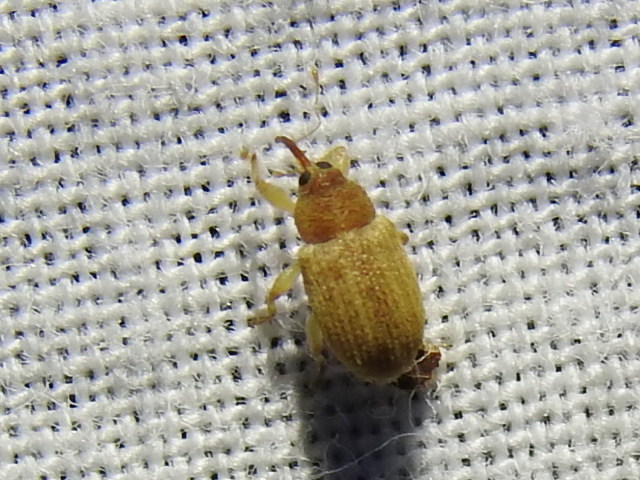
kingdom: Animalia
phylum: Arthropoda
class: Insecta
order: Coleoptera
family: Curculionidae
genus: Lignyodes
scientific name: Lignyodes helvolus
